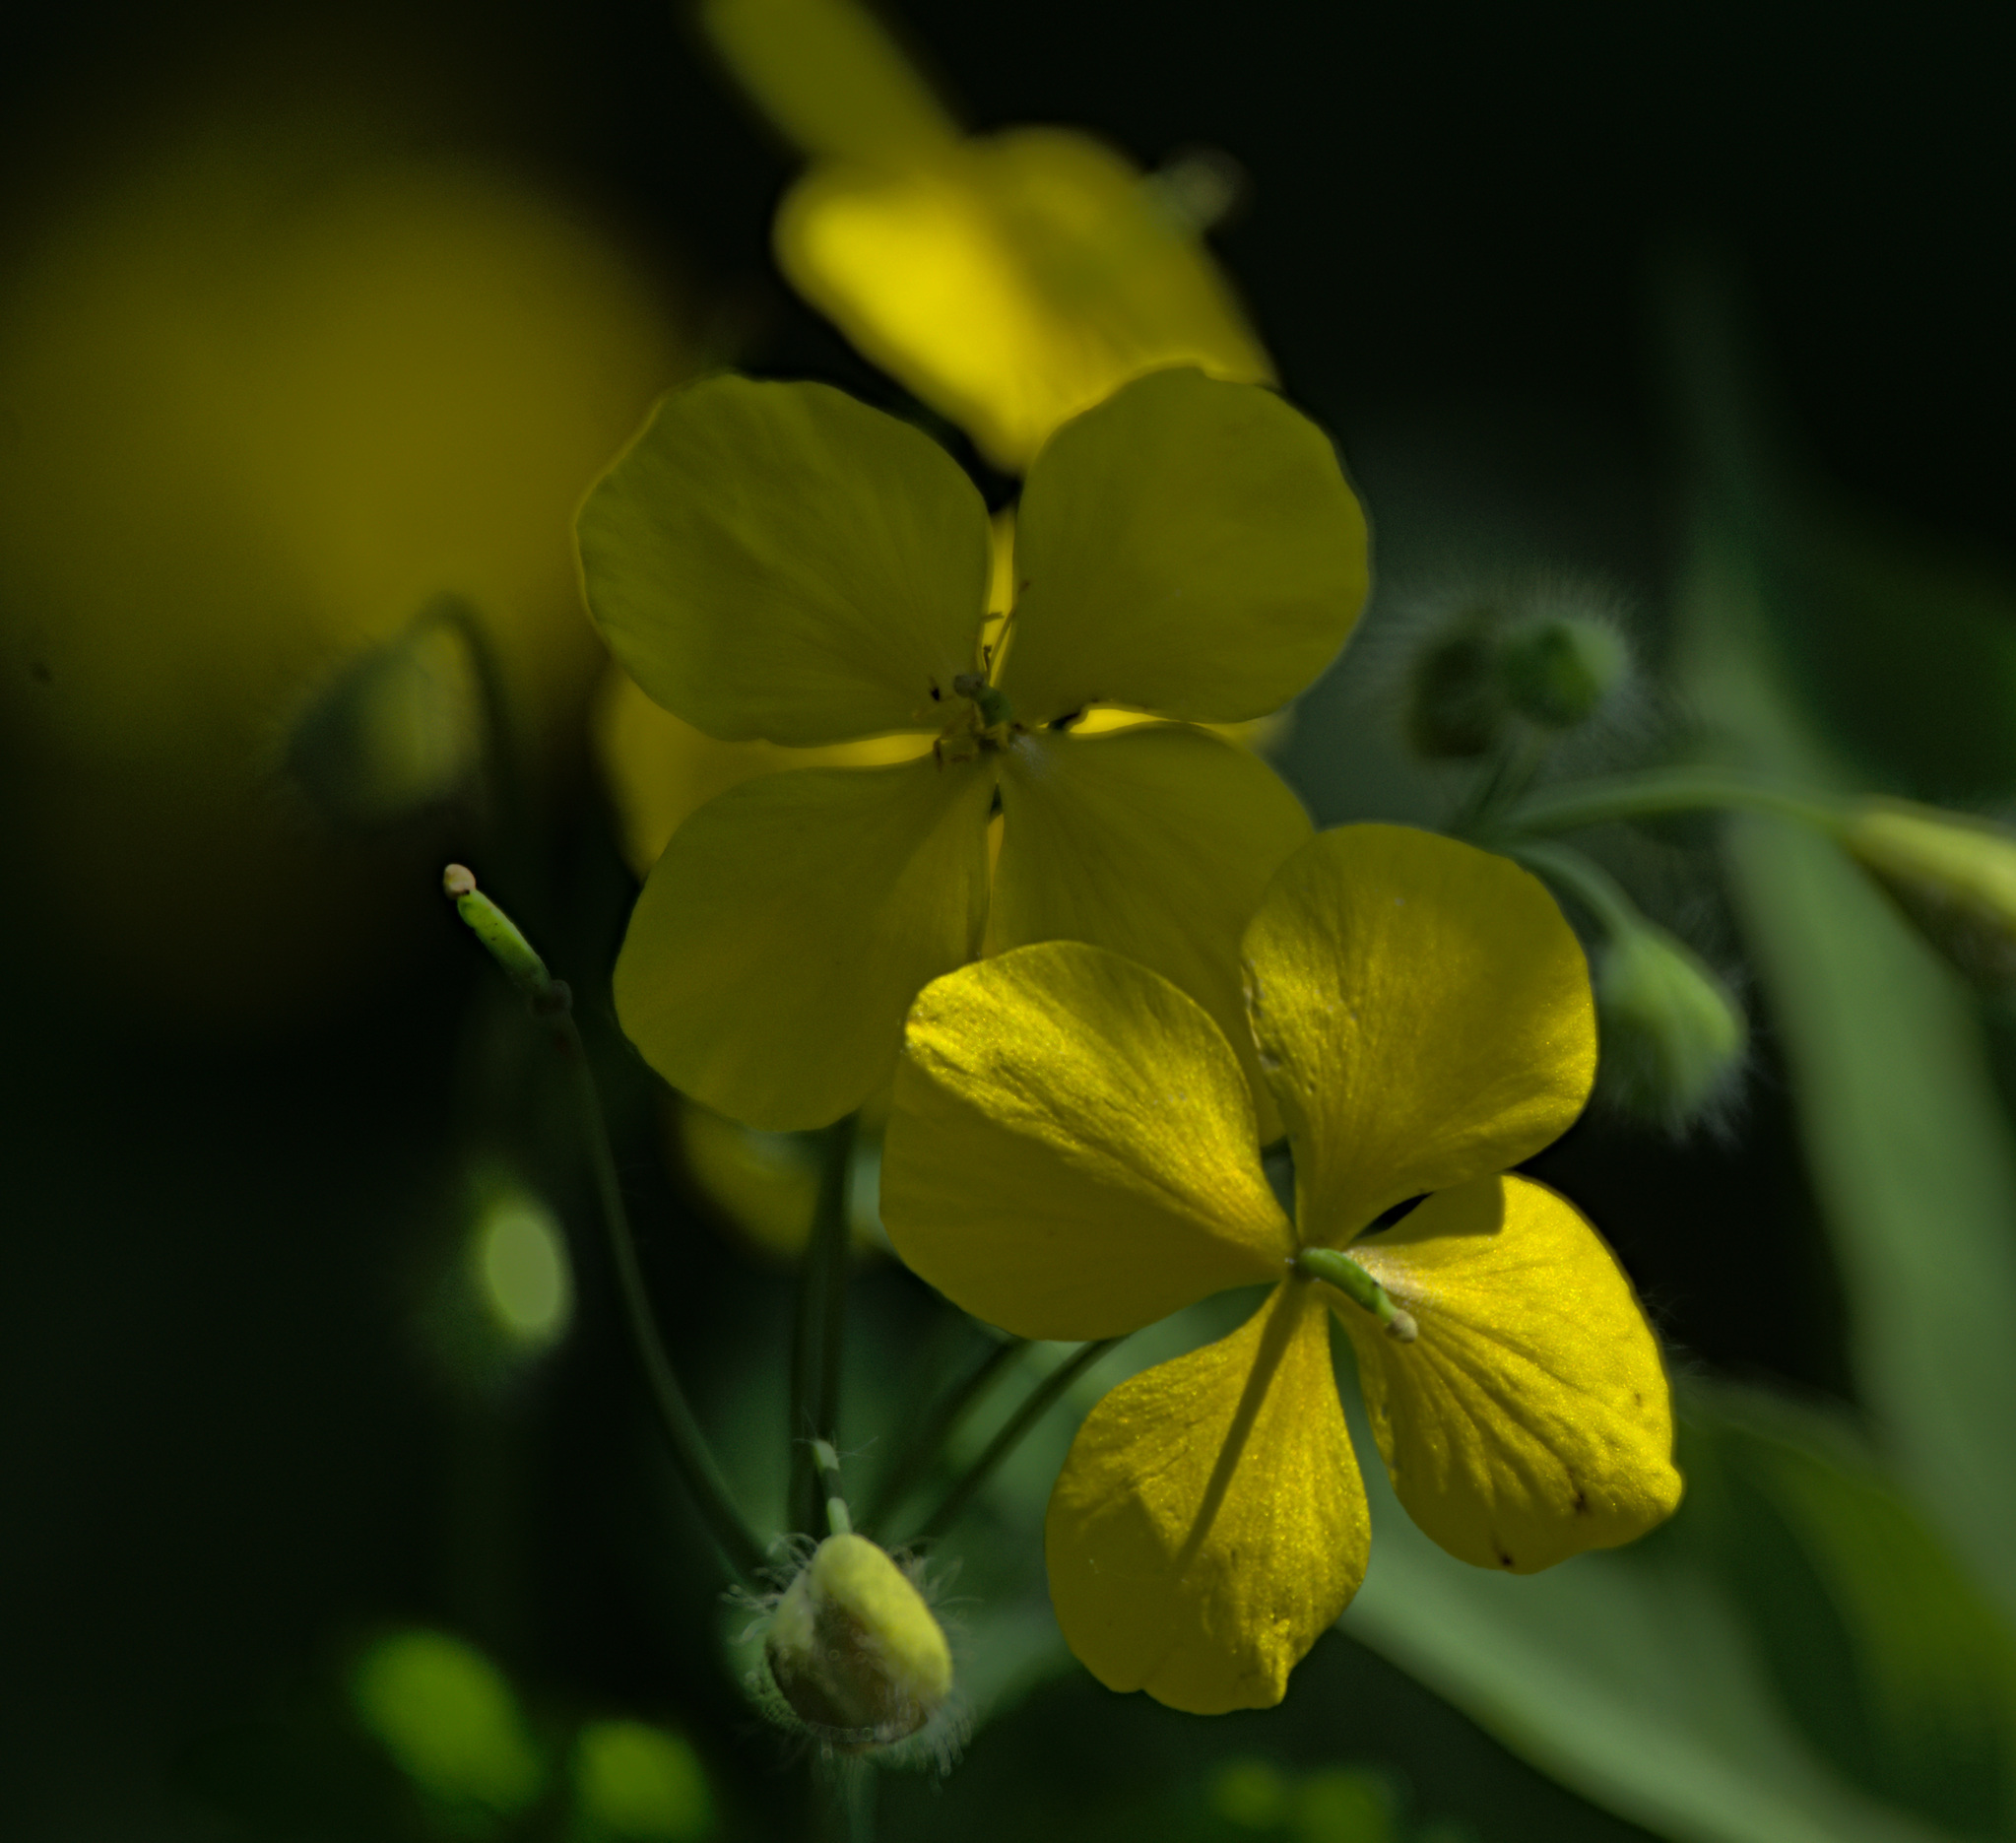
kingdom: Plantae
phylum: Tracheophyta
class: Magnoliopsida
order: Ranunculales
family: Papaveraceae
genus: Chelidonium
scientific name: Chelidonium majus
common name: Greater celandine
